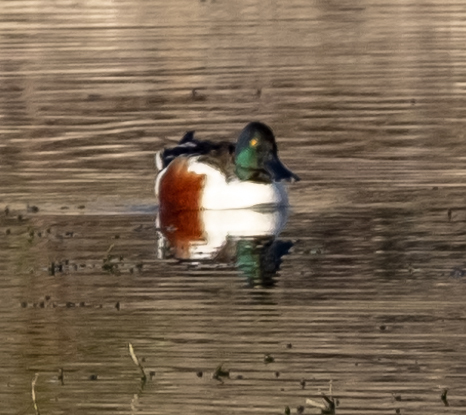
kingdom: Animalia
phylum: Chordata
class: Aves
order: Anseriformes
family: Anatidae
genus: Spatula
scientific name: Spatula clypeata
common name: Northern shoveler
